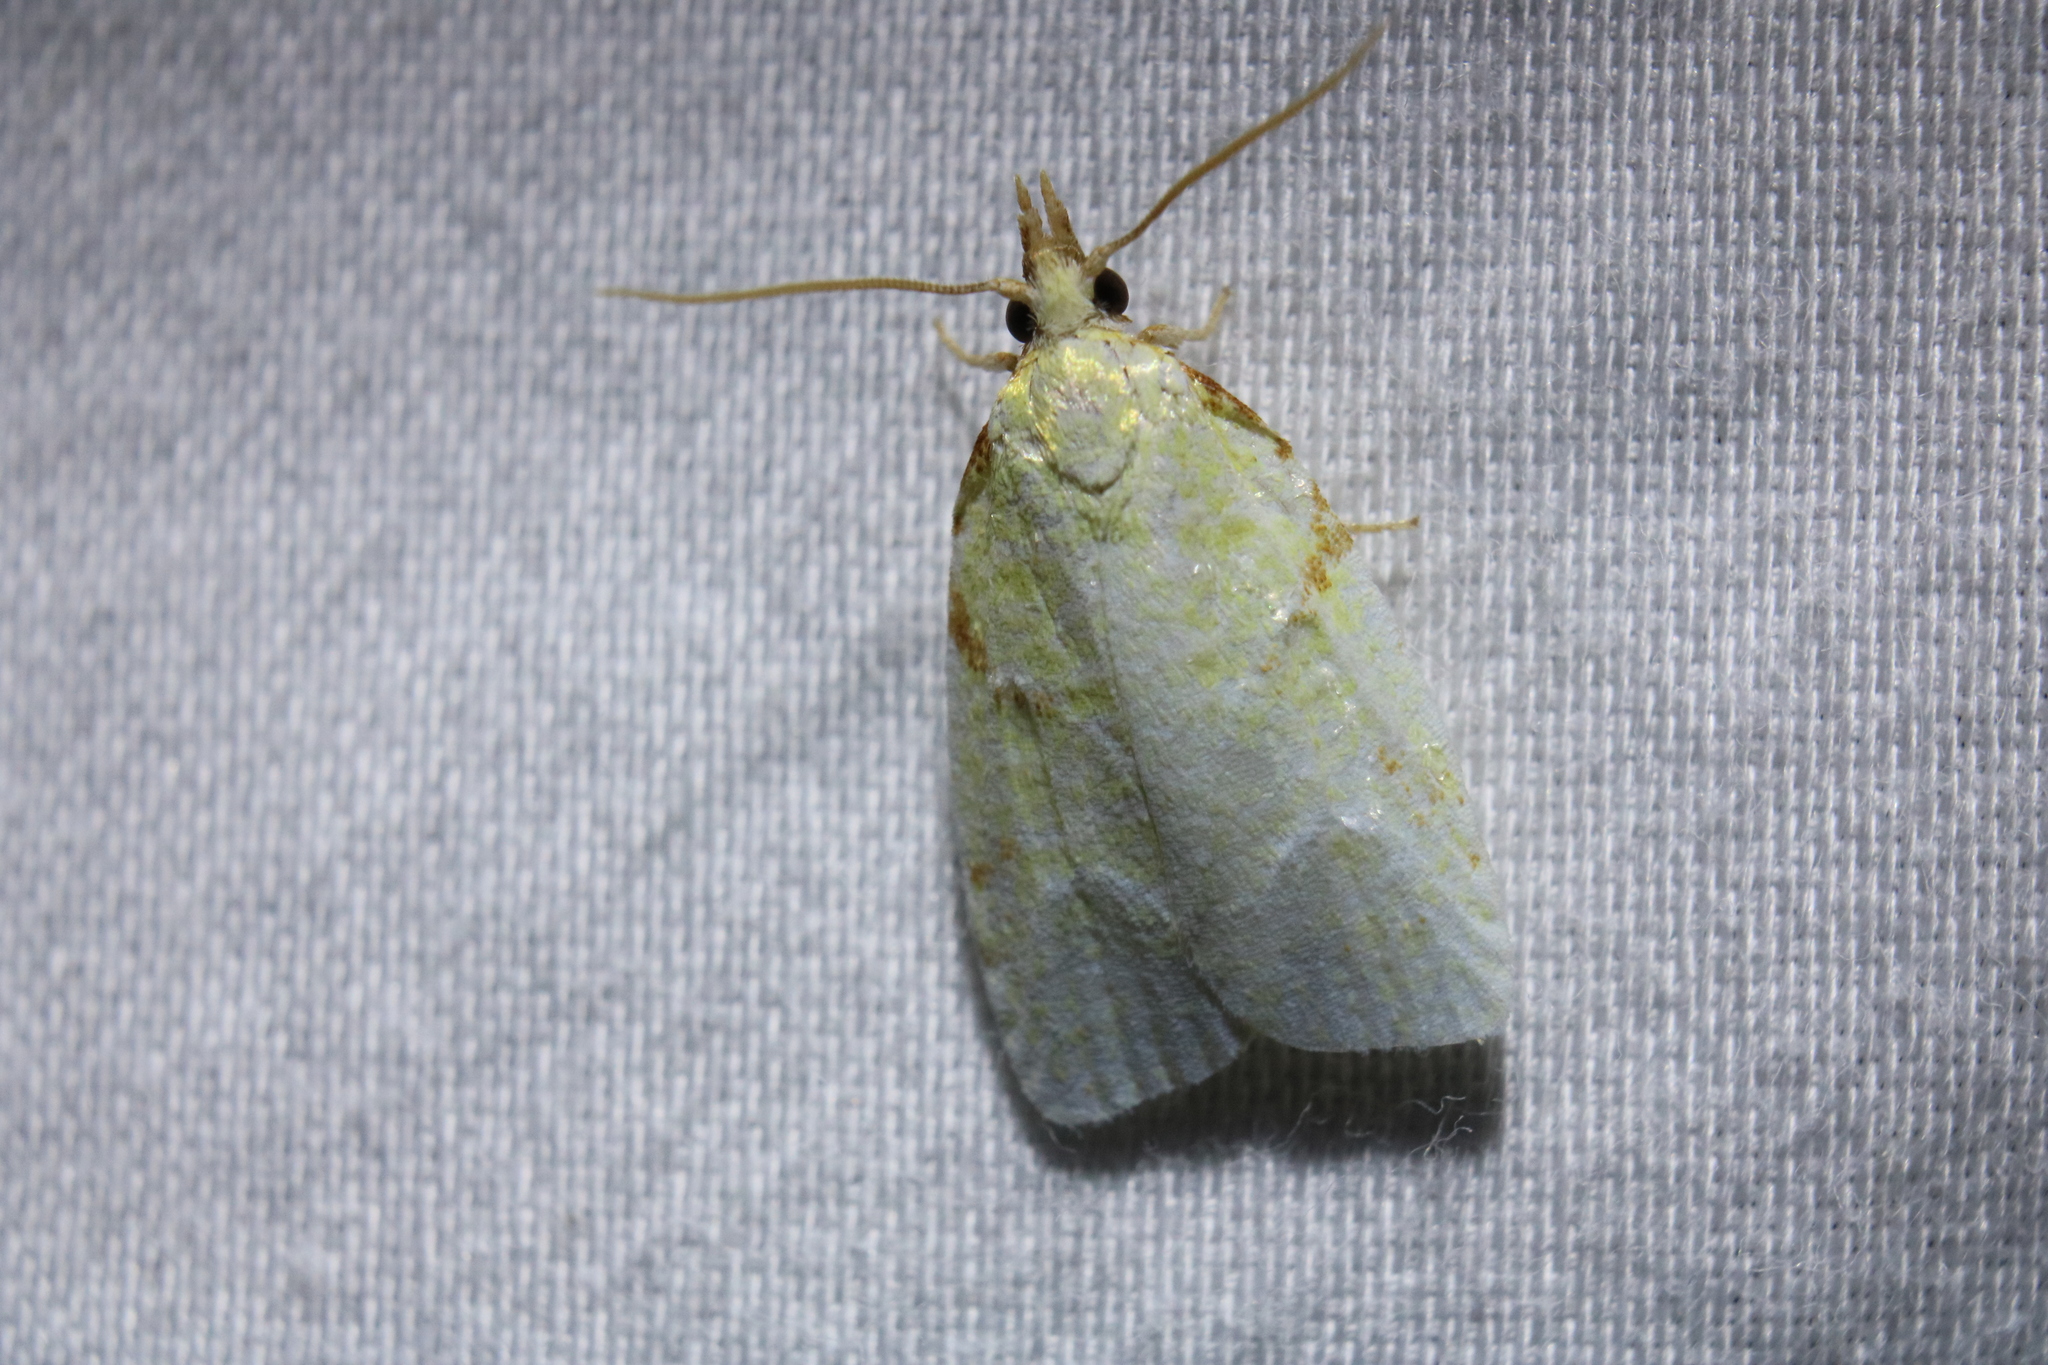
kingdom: Animalia
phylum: Arthropoda
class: Insecta
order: Lepidoptera
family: Tortricidae
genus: Cenopis
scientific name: Cenopis pettitana
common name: Maple-basswood leafroller moth
